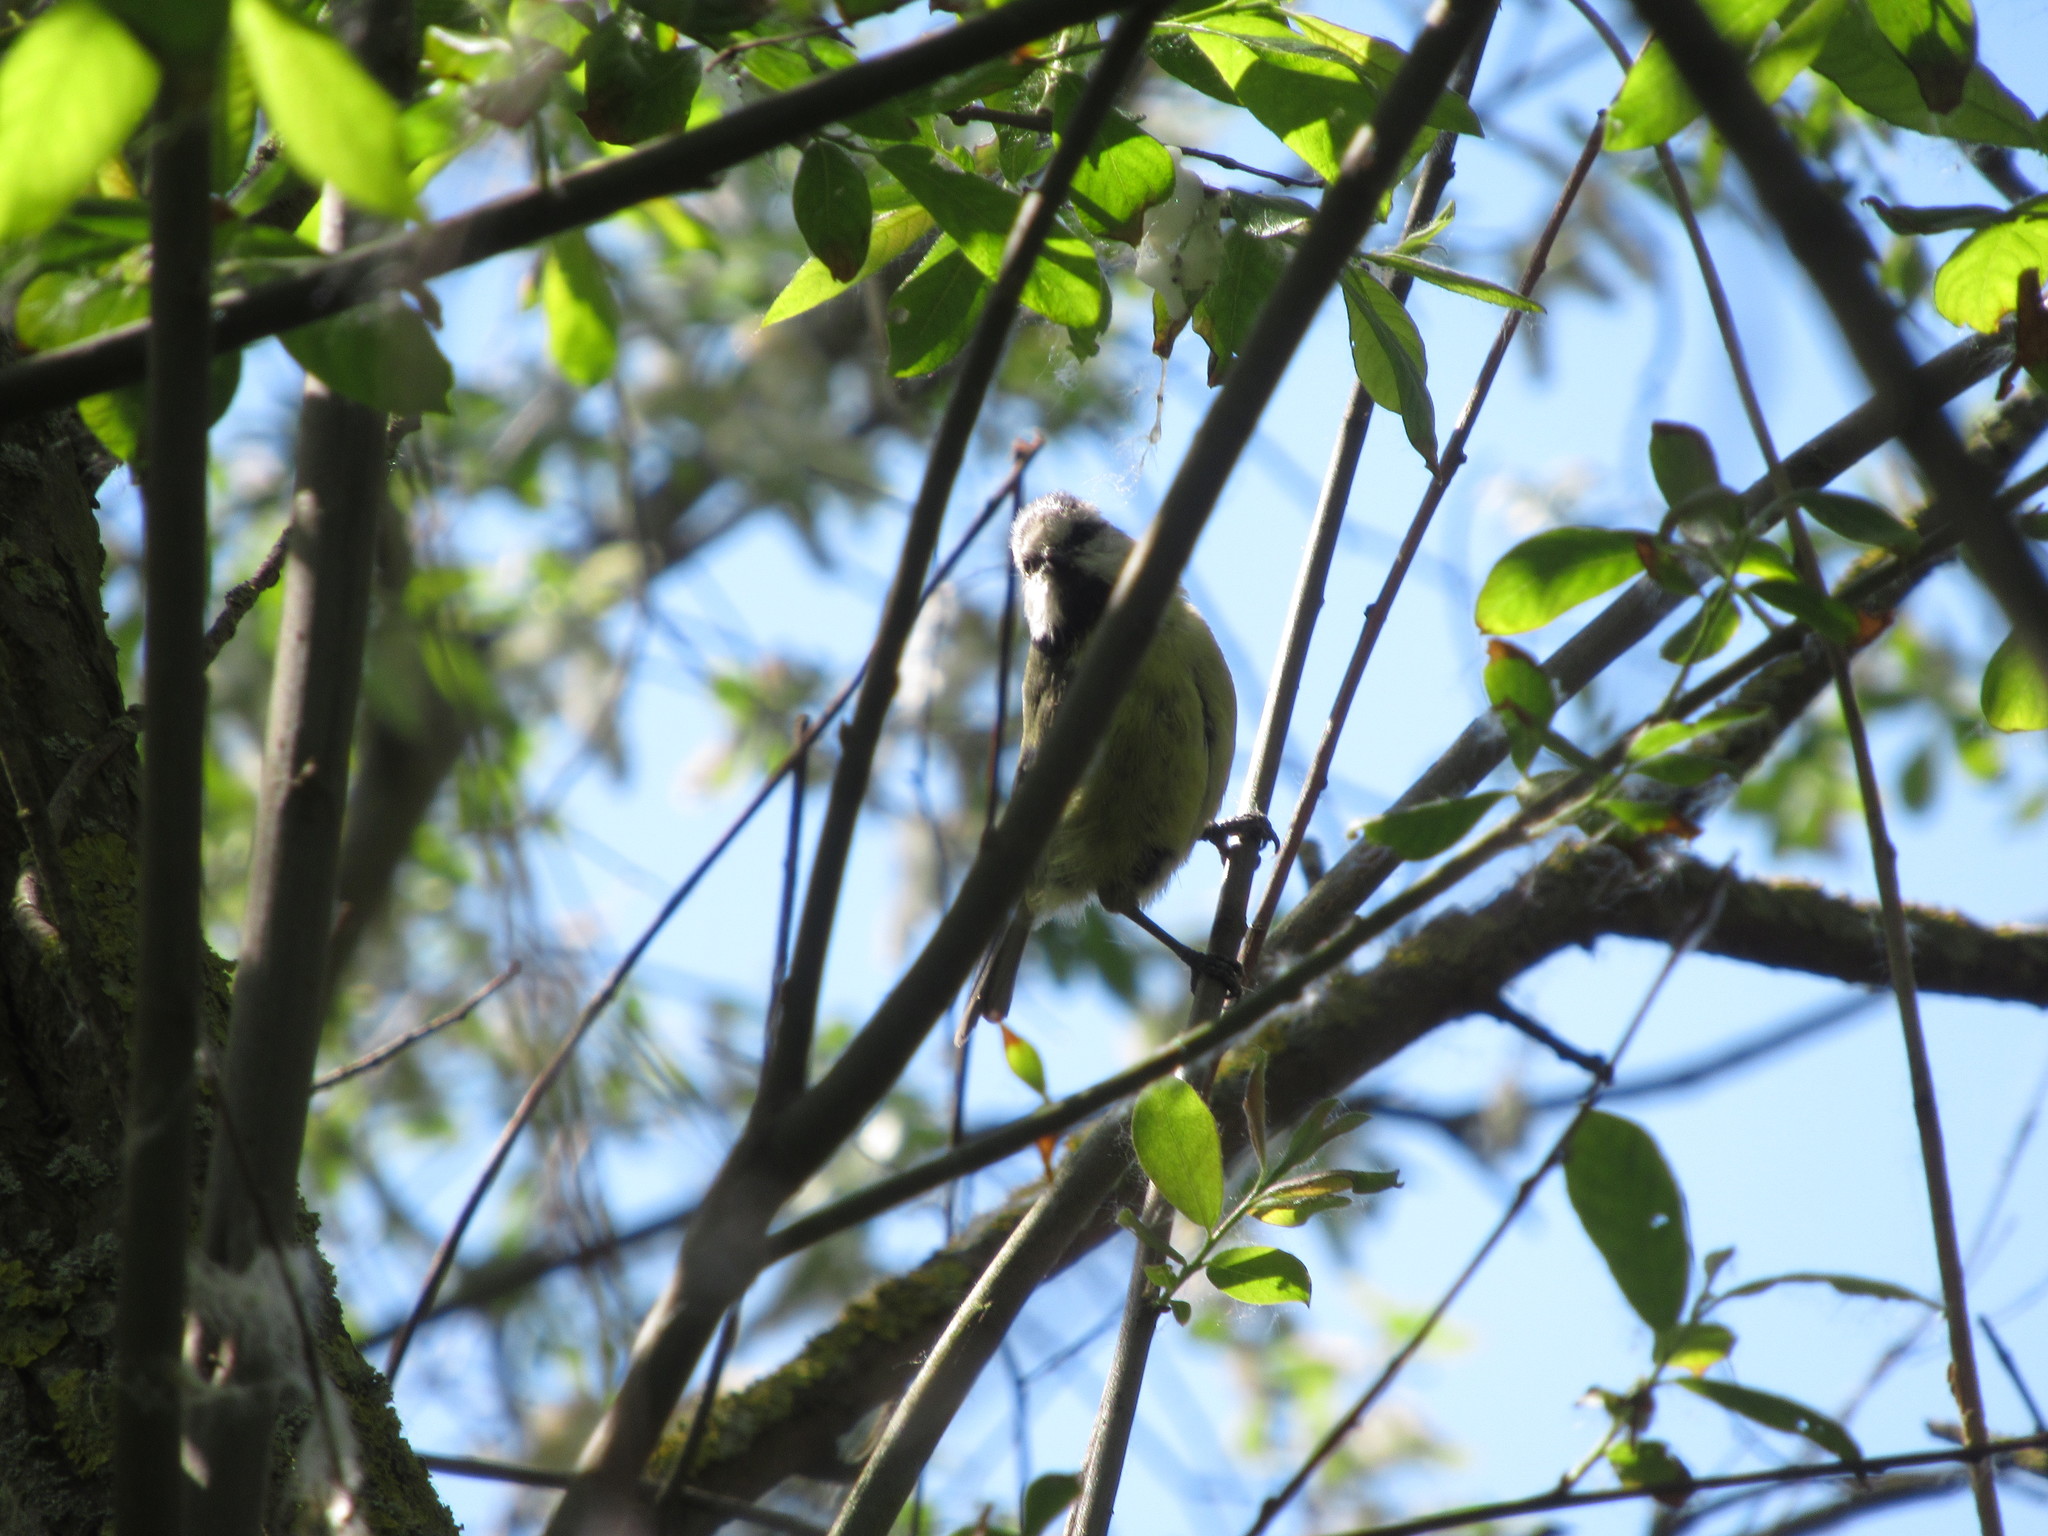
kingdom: Animalia
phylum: Chordata
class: Aves
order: Passeriformes
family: Paridae
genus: Cyanistes
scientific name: Cyanistes caeruleus
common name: Eurasian blue tit
